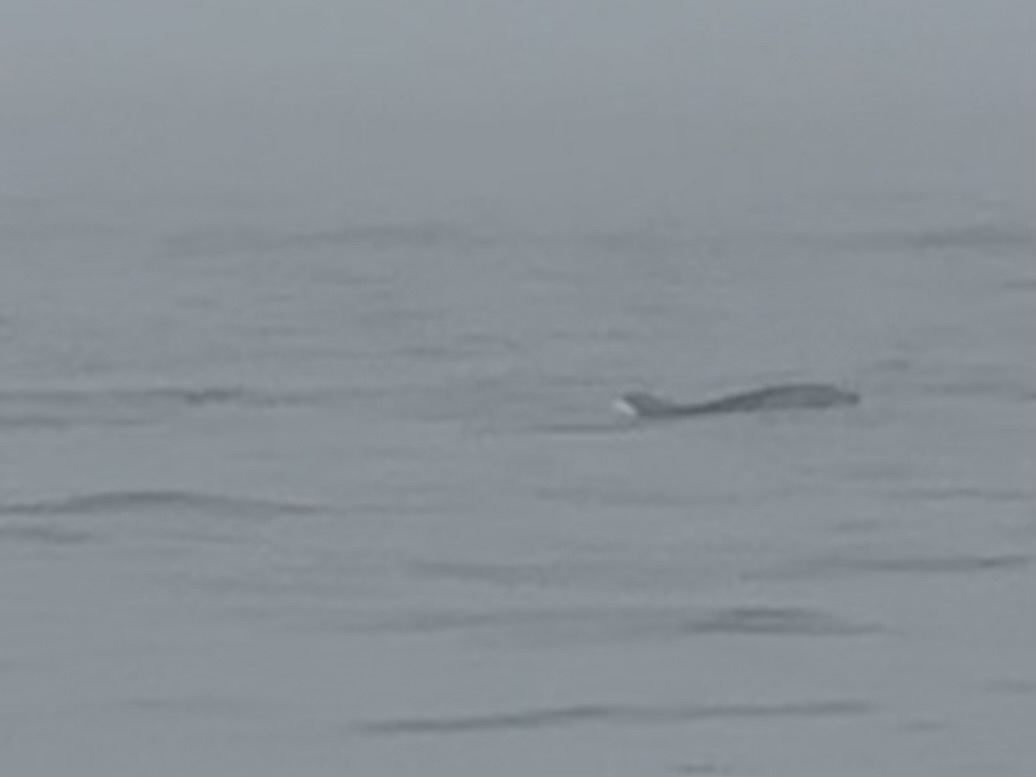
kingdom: Animalia
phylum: Chordata
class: Mammalia
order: Cetacea
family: Delphinidae
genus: Tursiops
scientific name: Tursiops truncatus
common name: Bottlenose dolphin
